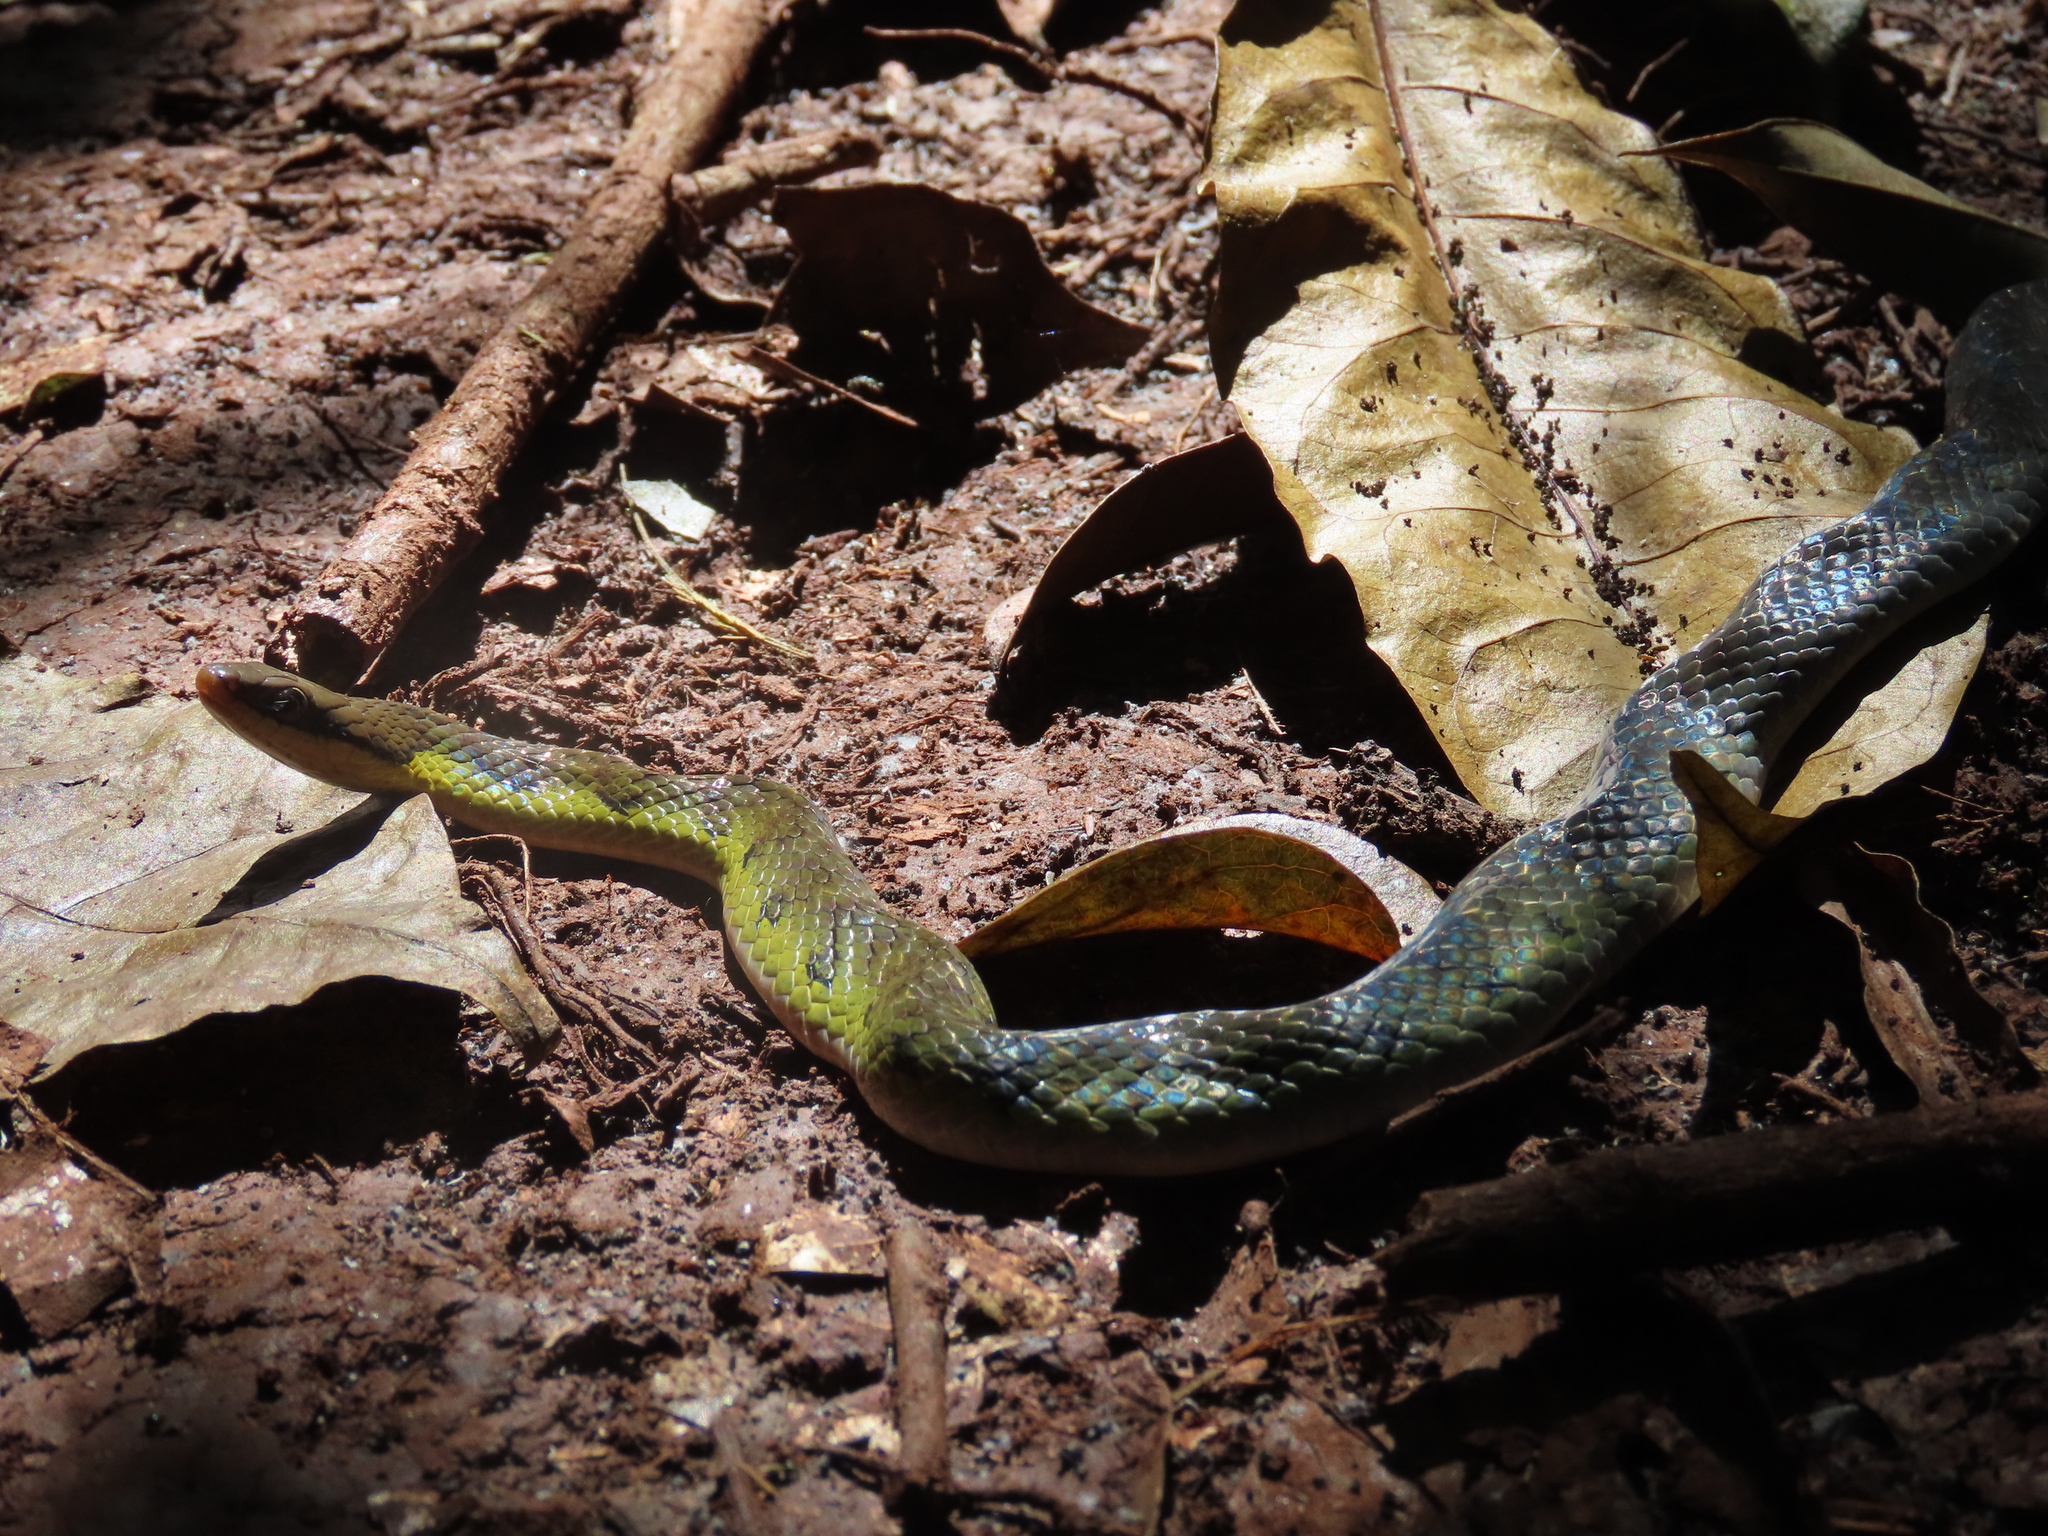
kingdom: Animalia
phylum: Chordata
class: Squamata
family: Colubridae
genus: Erythrolamprus
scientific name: Erythrolamprus epinephalus
